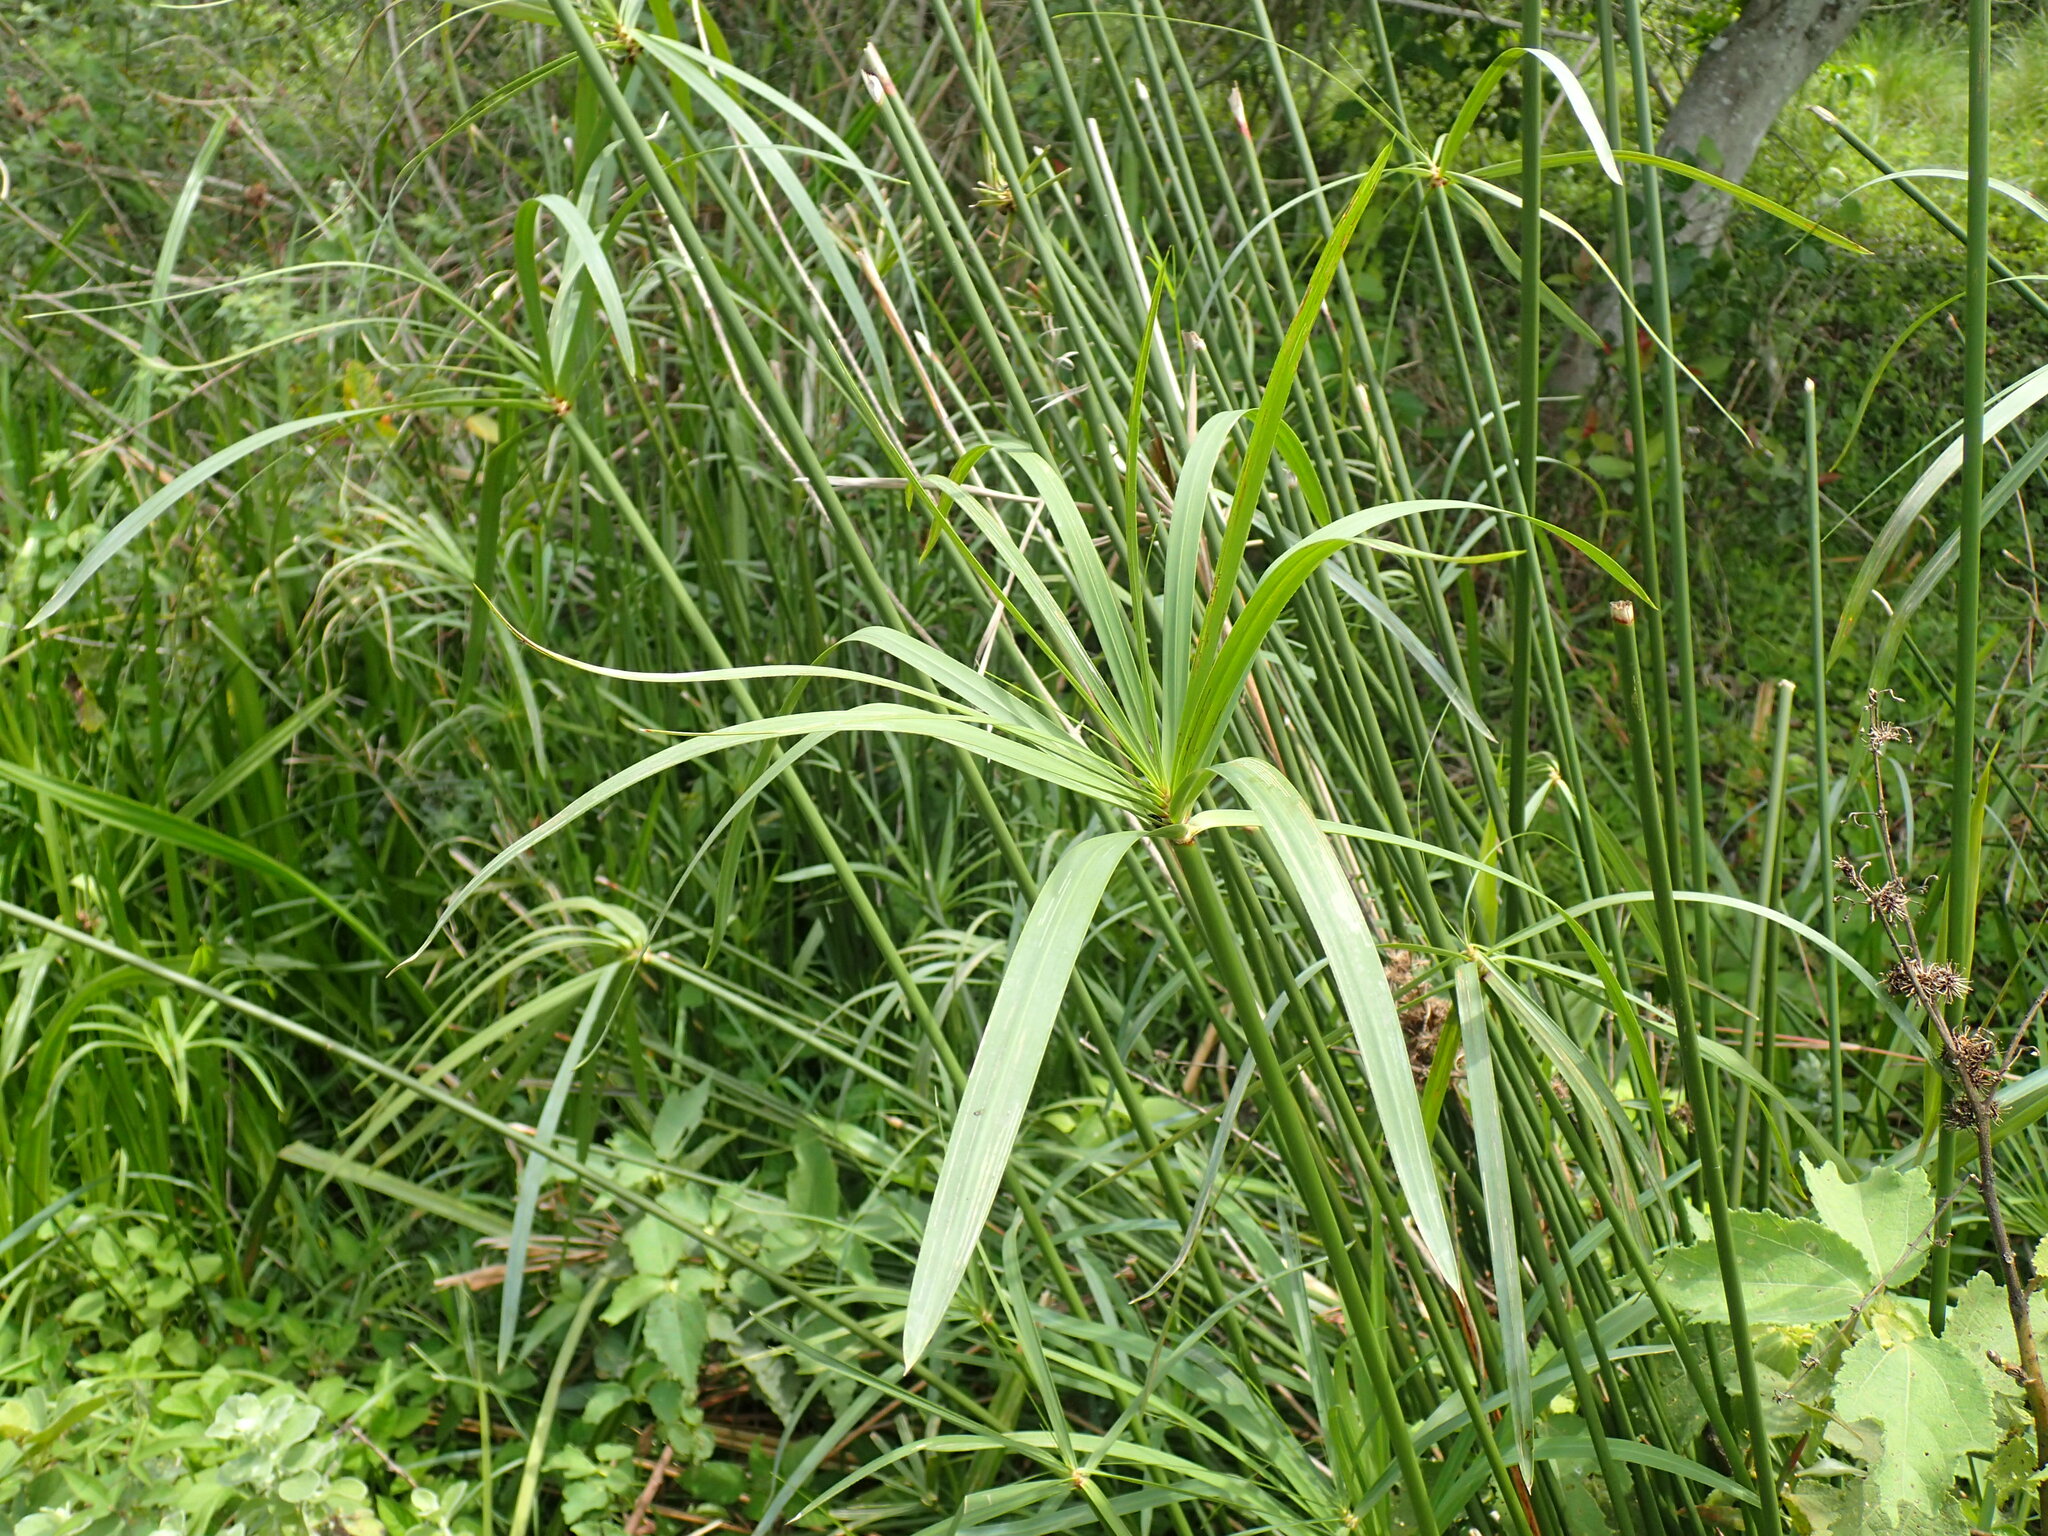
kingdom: Plantae
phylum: Tracheophyta
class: Liliopsida
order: Poales
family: Cyperaceae
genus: Cyperus
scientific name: Cyperus textilis
